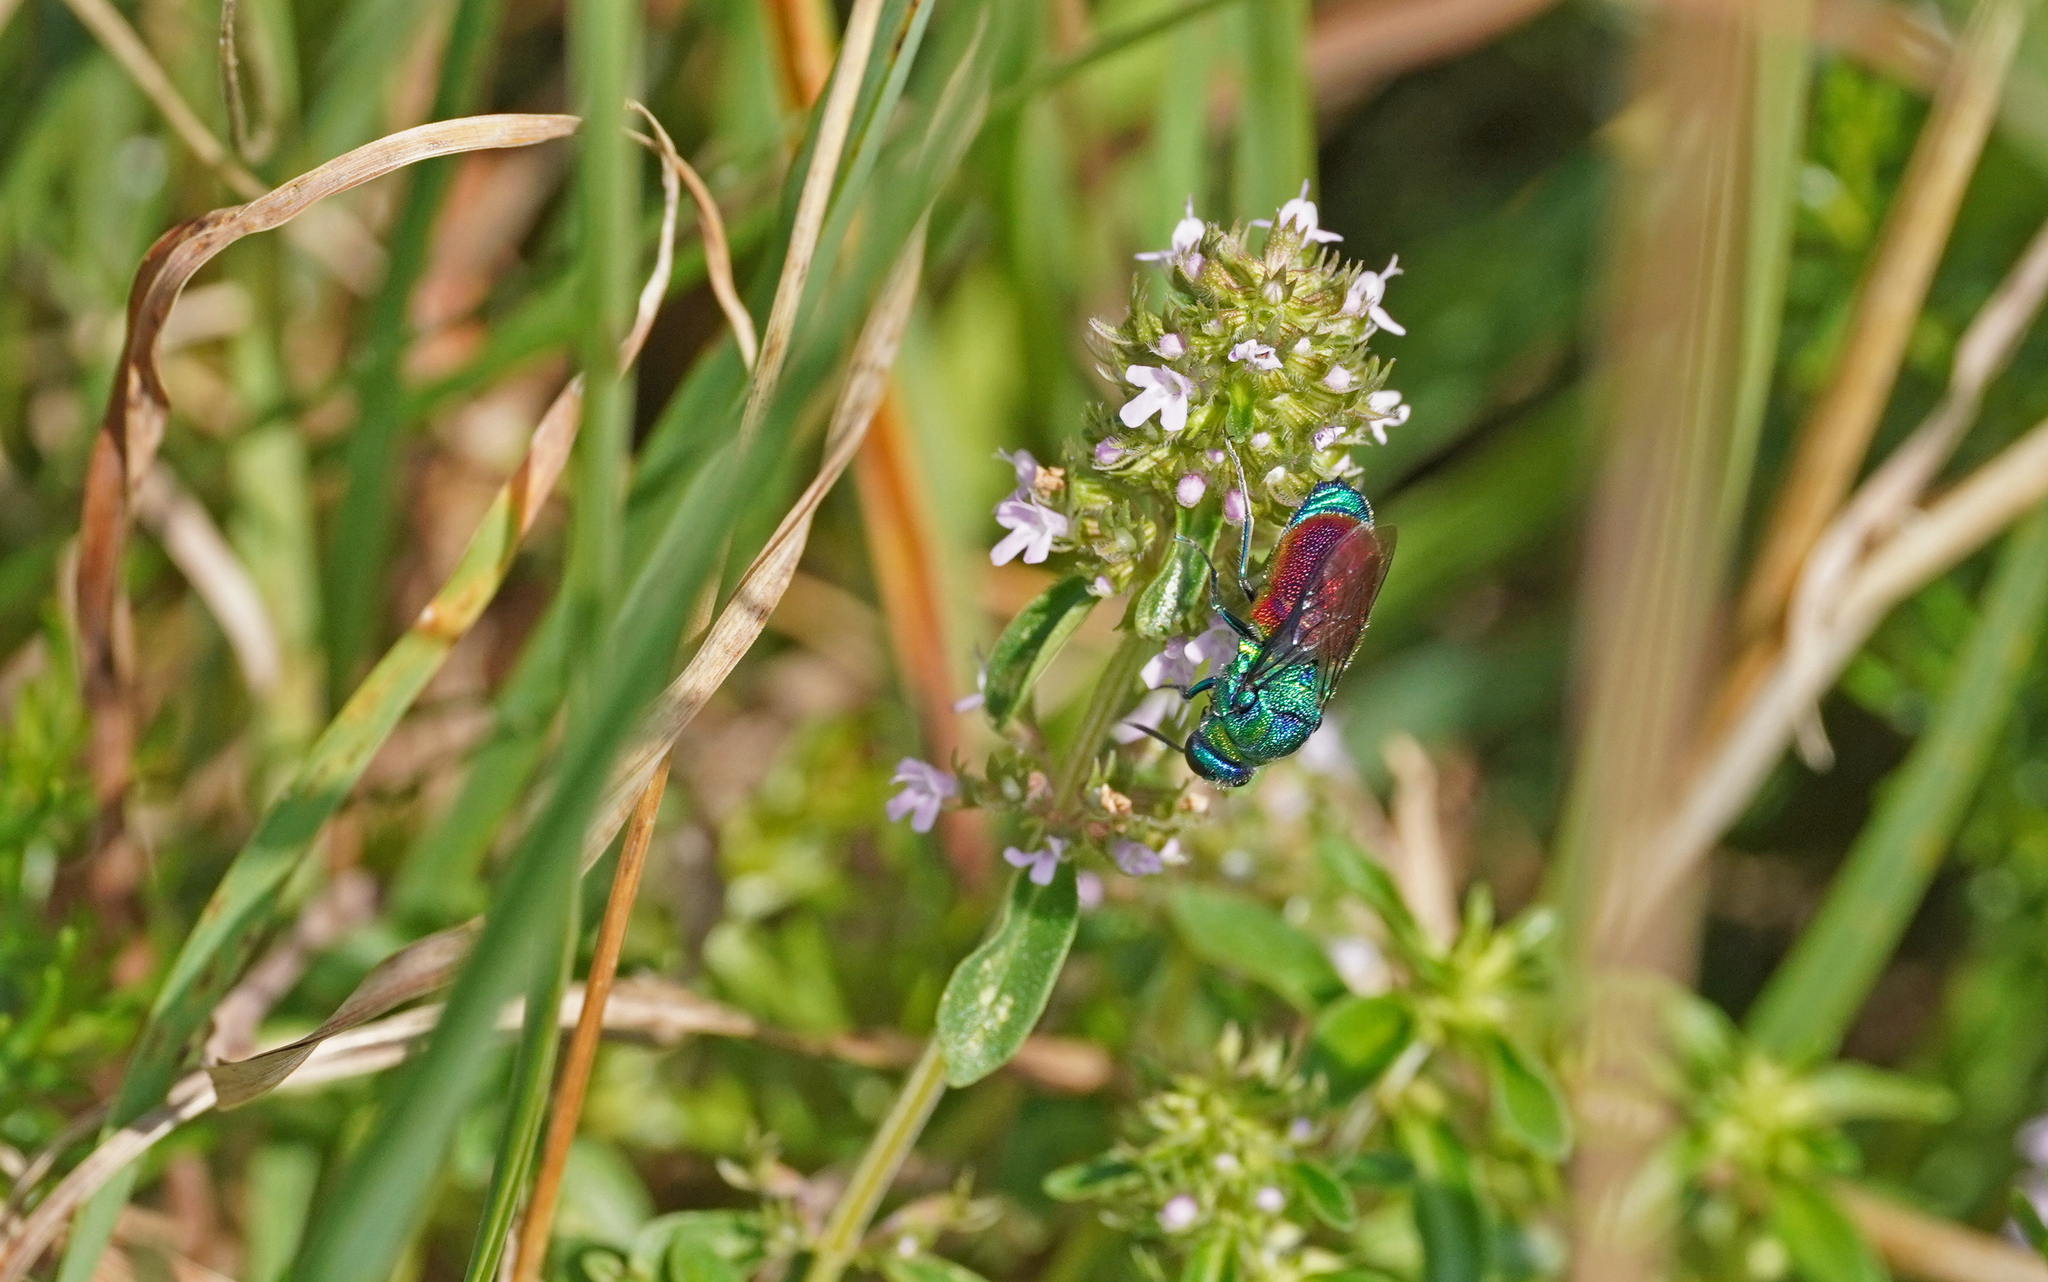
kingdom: Animalia
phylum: Arthropoda
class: Insecta
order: Hymenoptera
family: Chrysididae
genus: Stilbum
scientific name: Stilbum calens
